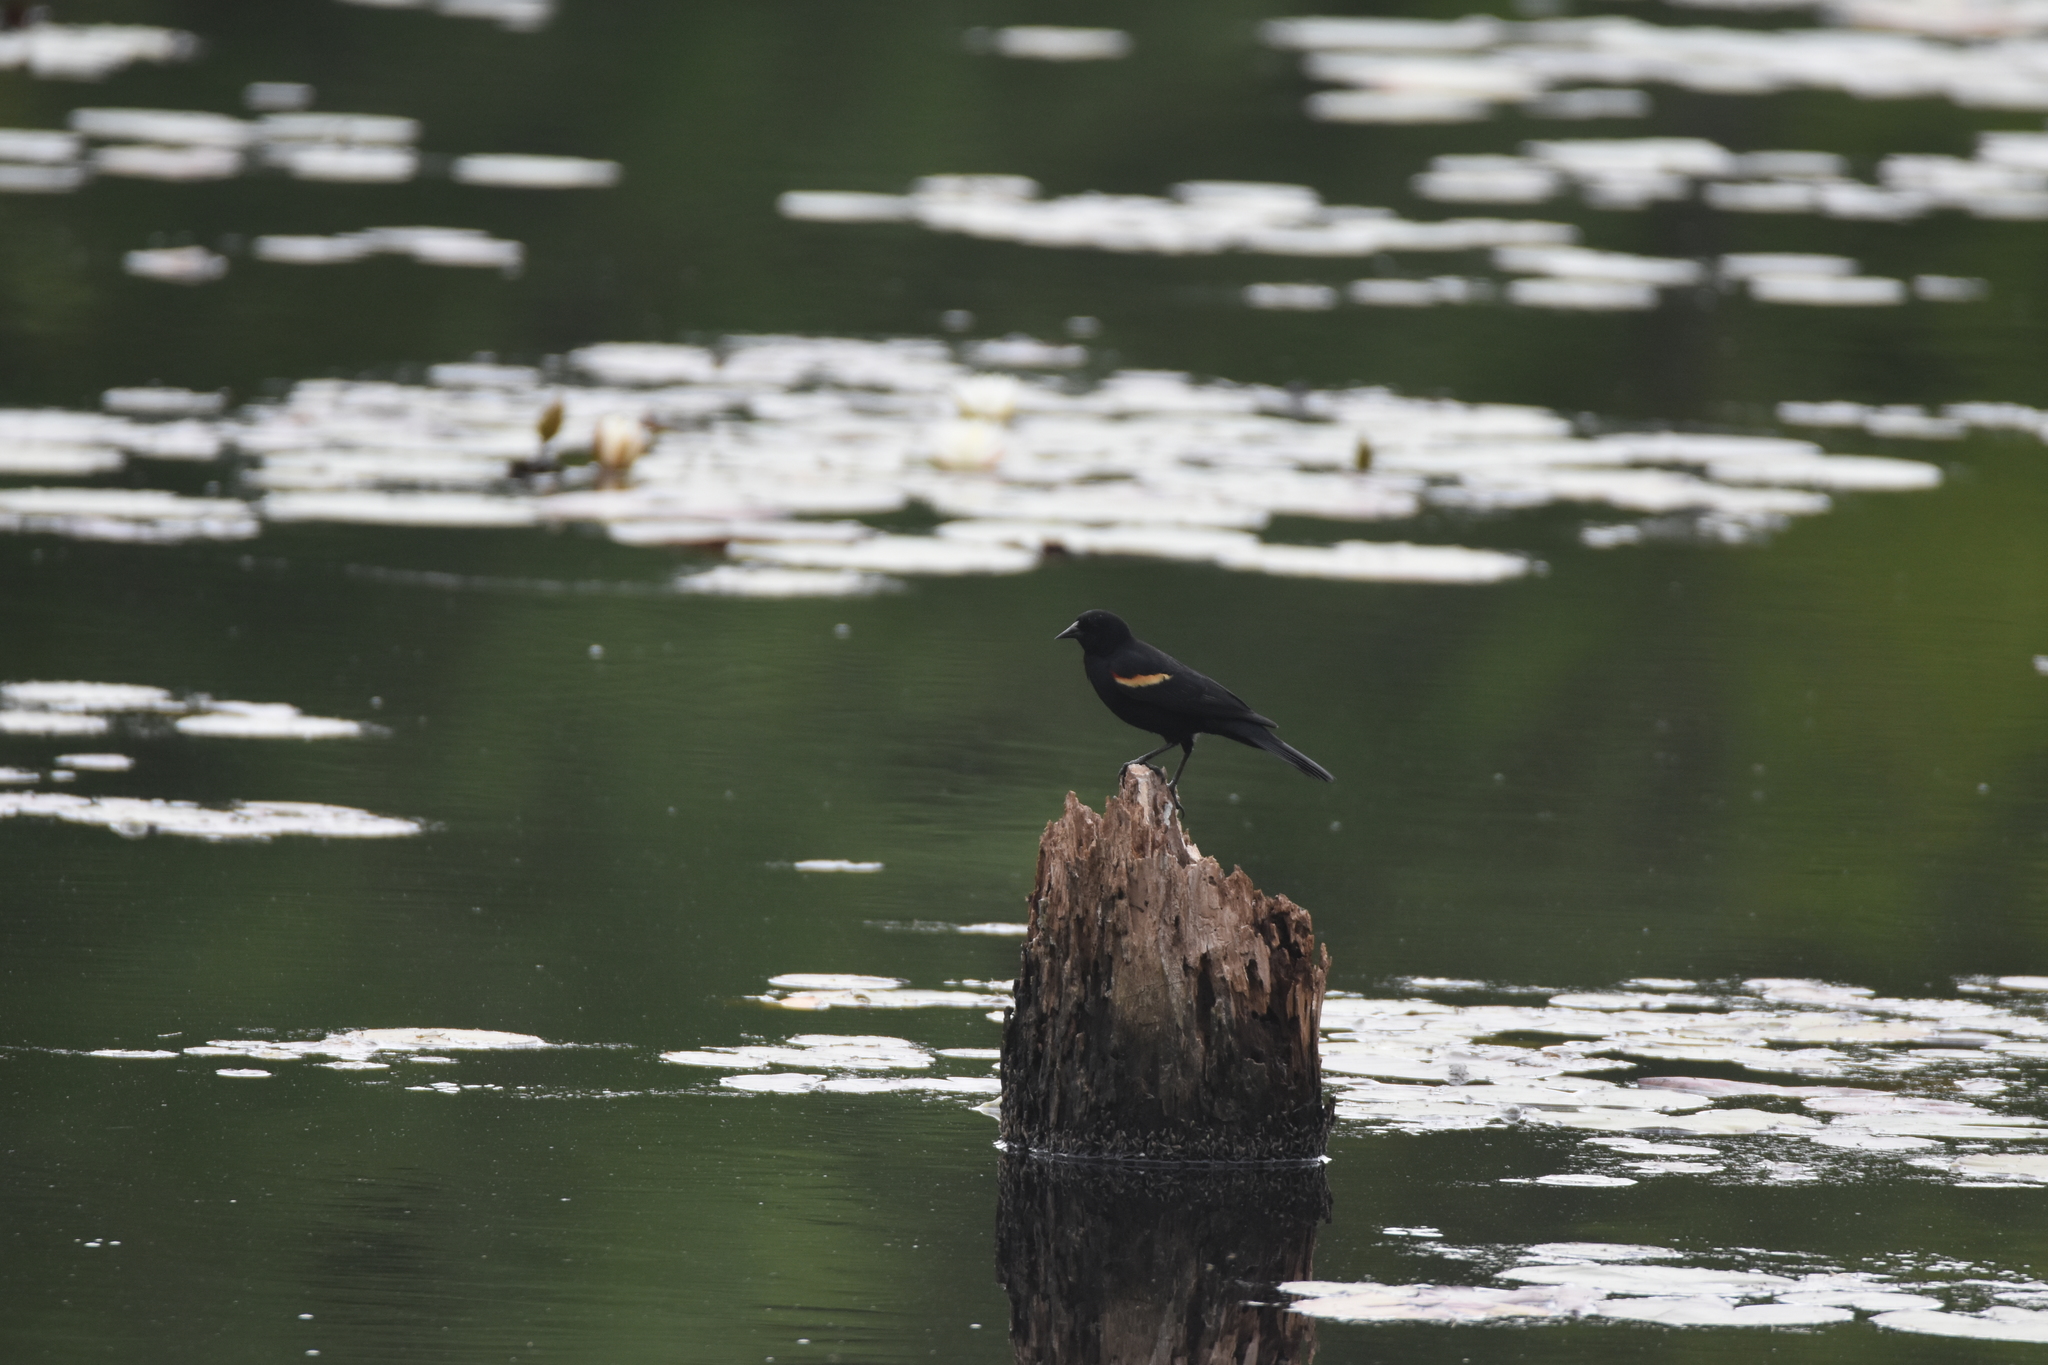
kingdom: Animalia
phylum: Chordata
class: Aves
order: Passeriformes
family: Icteridae
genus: Agelaius
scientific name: Agelaius phoeniceus
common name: Red-winged blackbird
